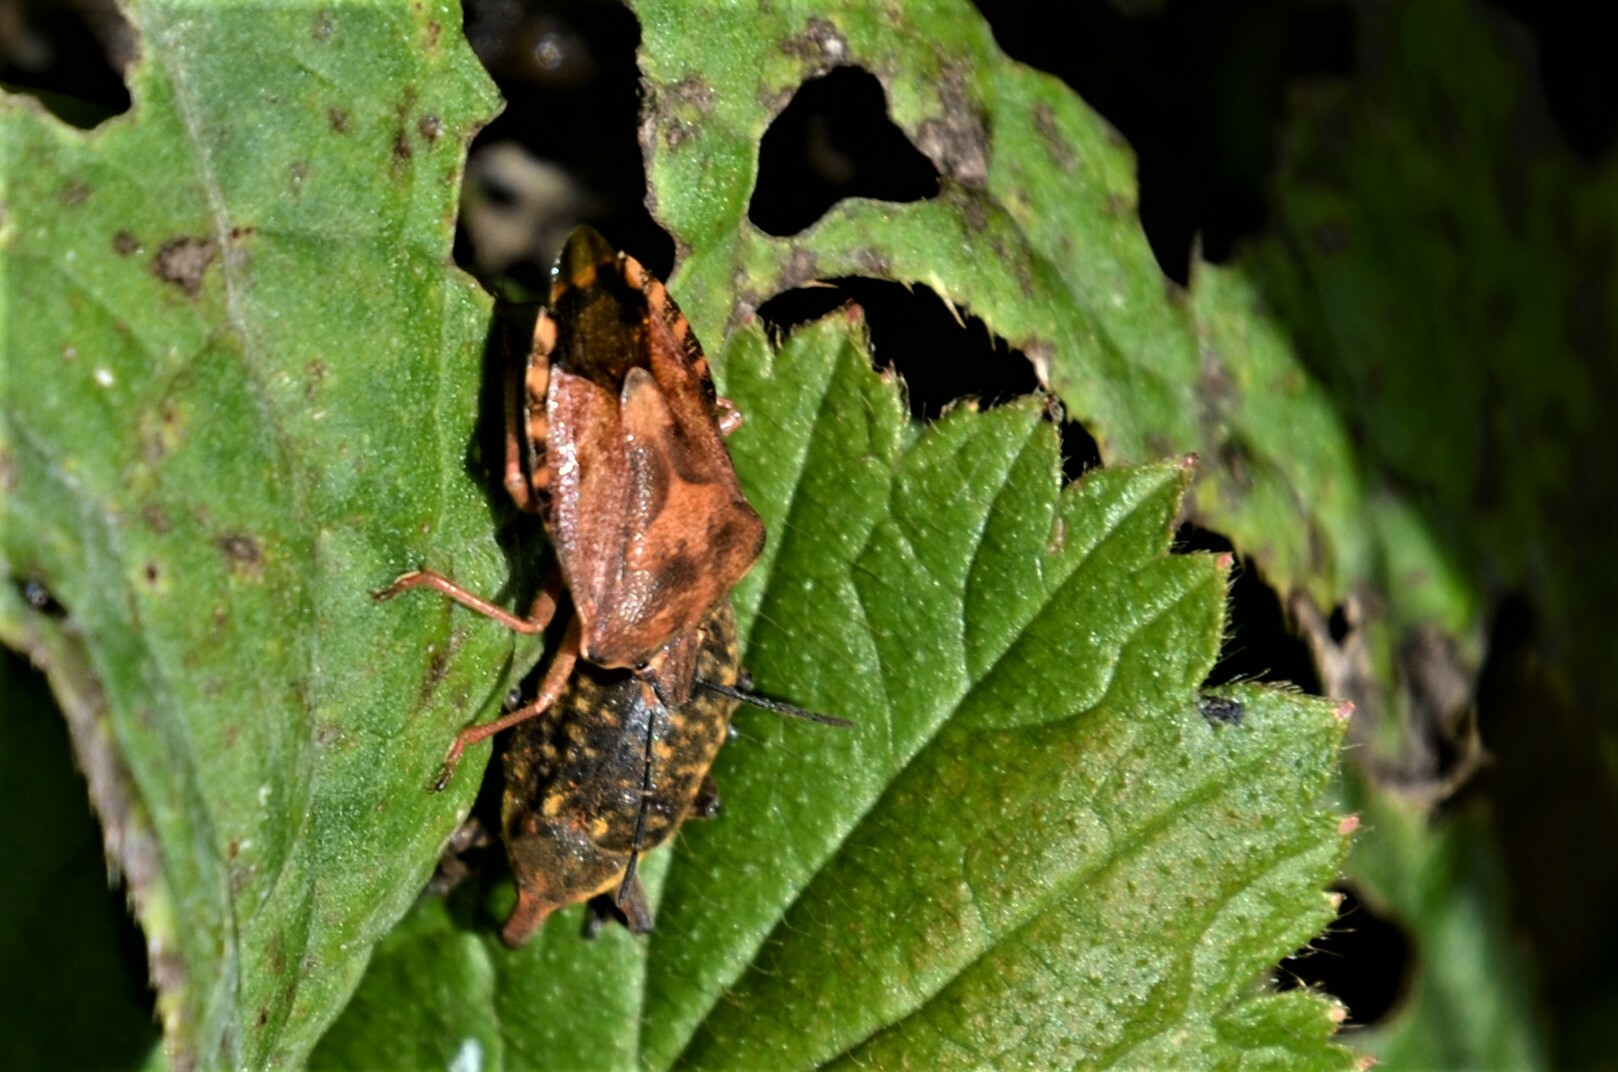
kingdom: Animalia
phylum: Arthropoda
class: Insecta
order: Hemiptera
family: Pentatomidae
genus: Carpocoris
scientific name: Carpocoris purpureipennis
